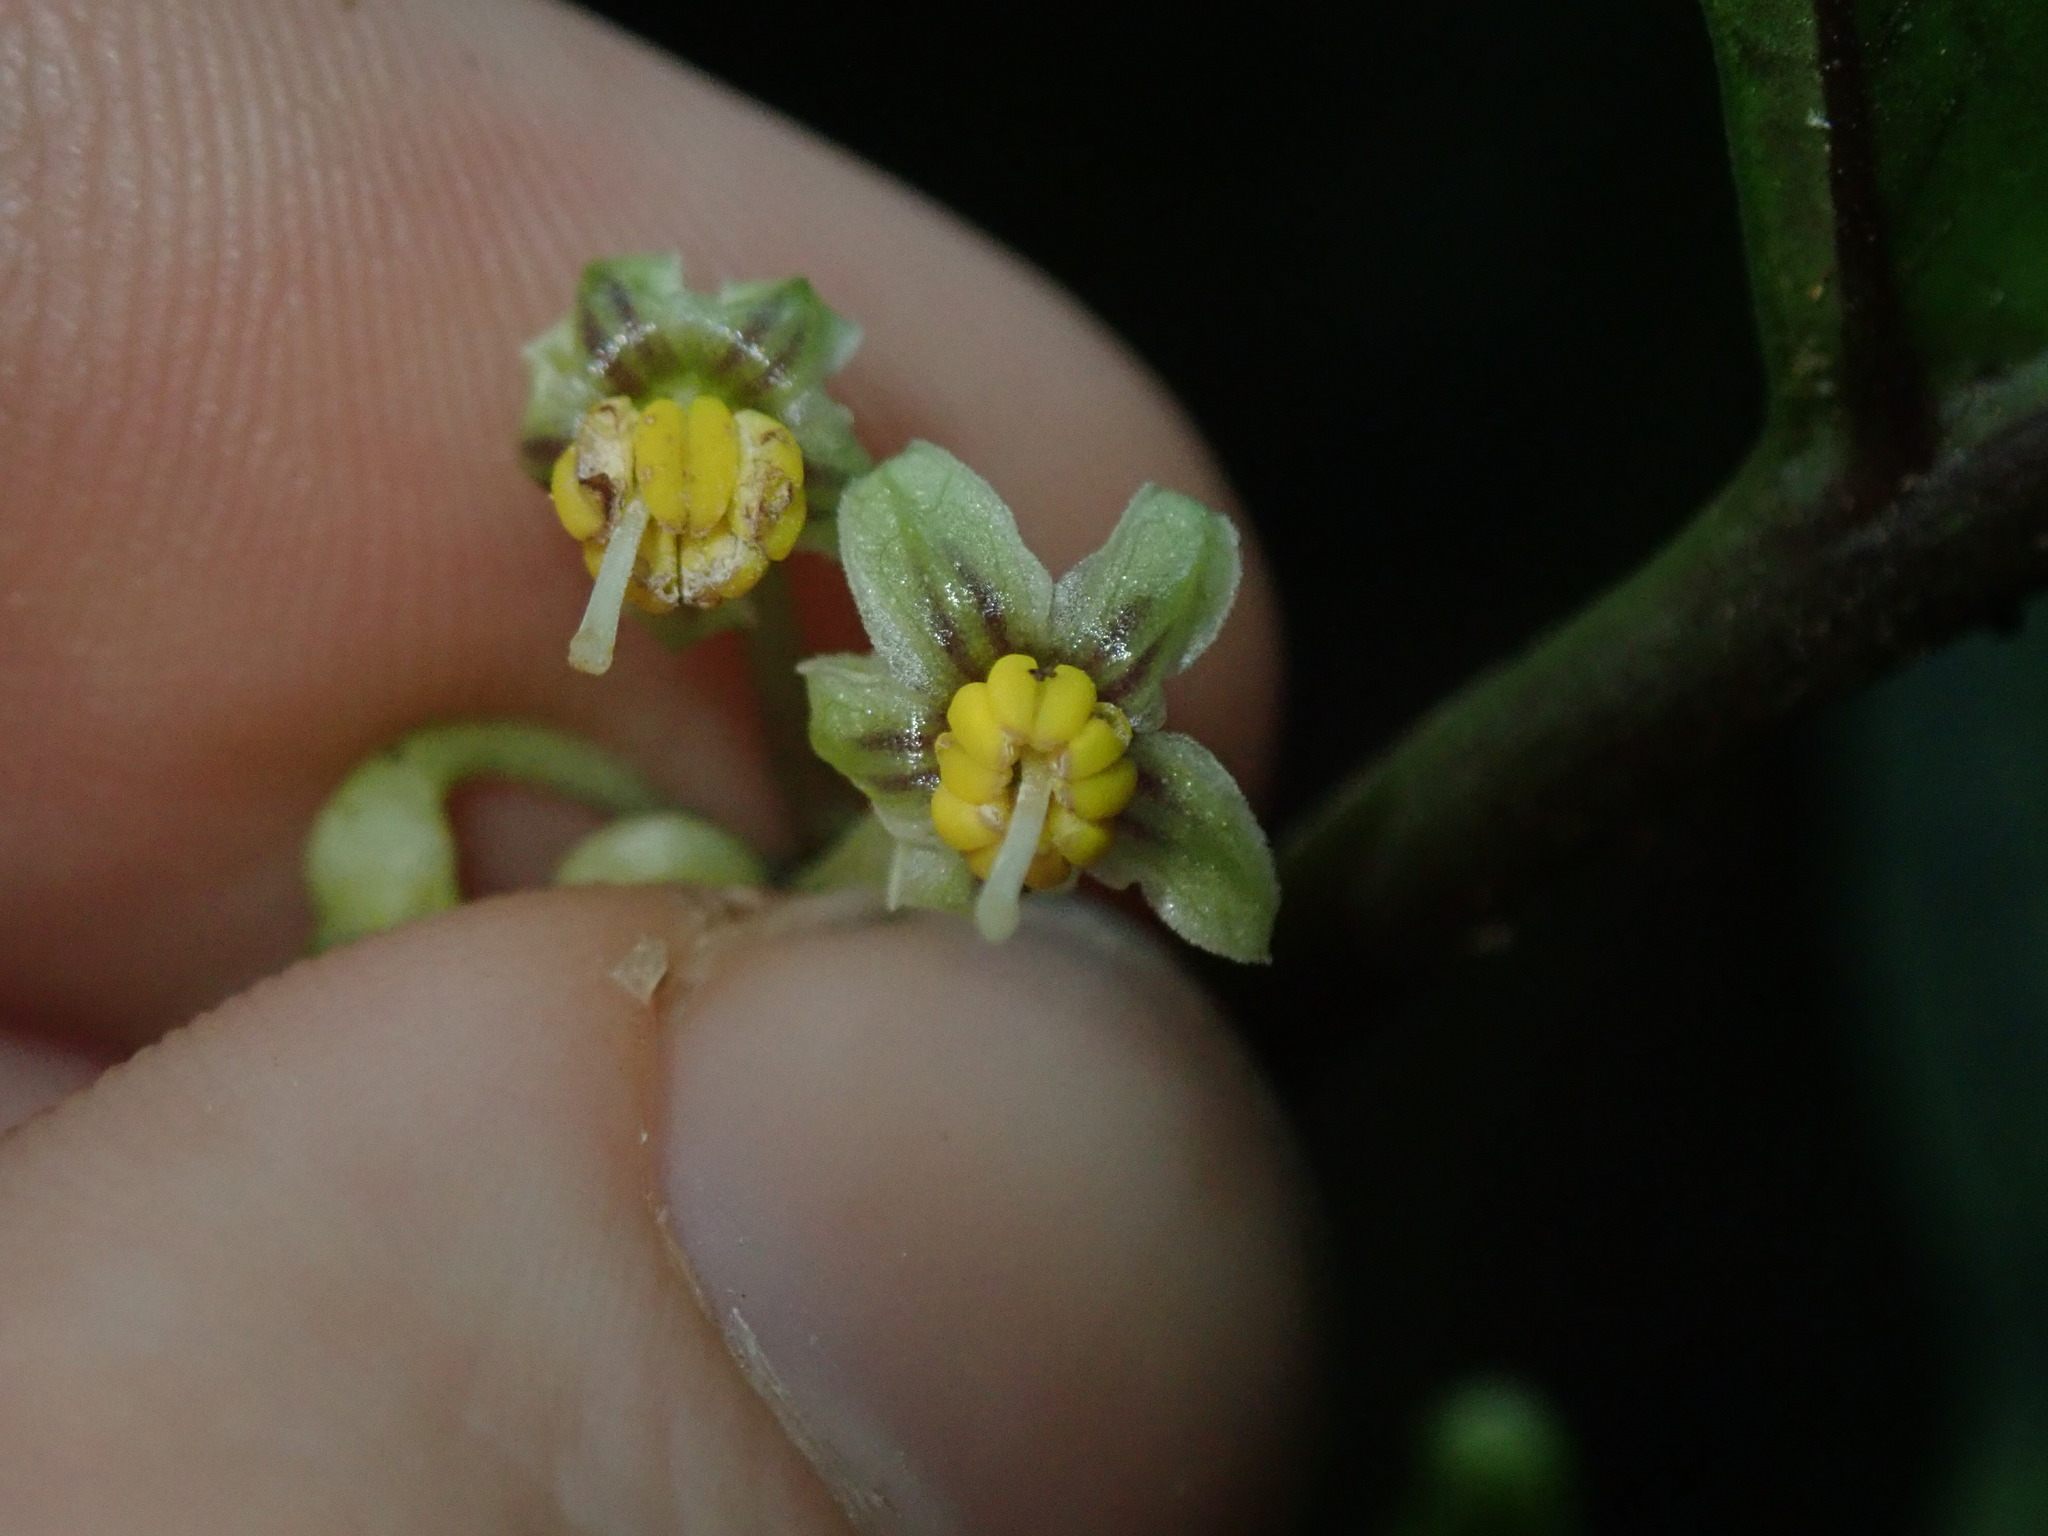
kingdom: Plantae
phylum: Tracheophyta
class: Magnoliopsida
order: Solanales
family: Solanaceae
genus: Solanum
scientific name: Solanum anceps
